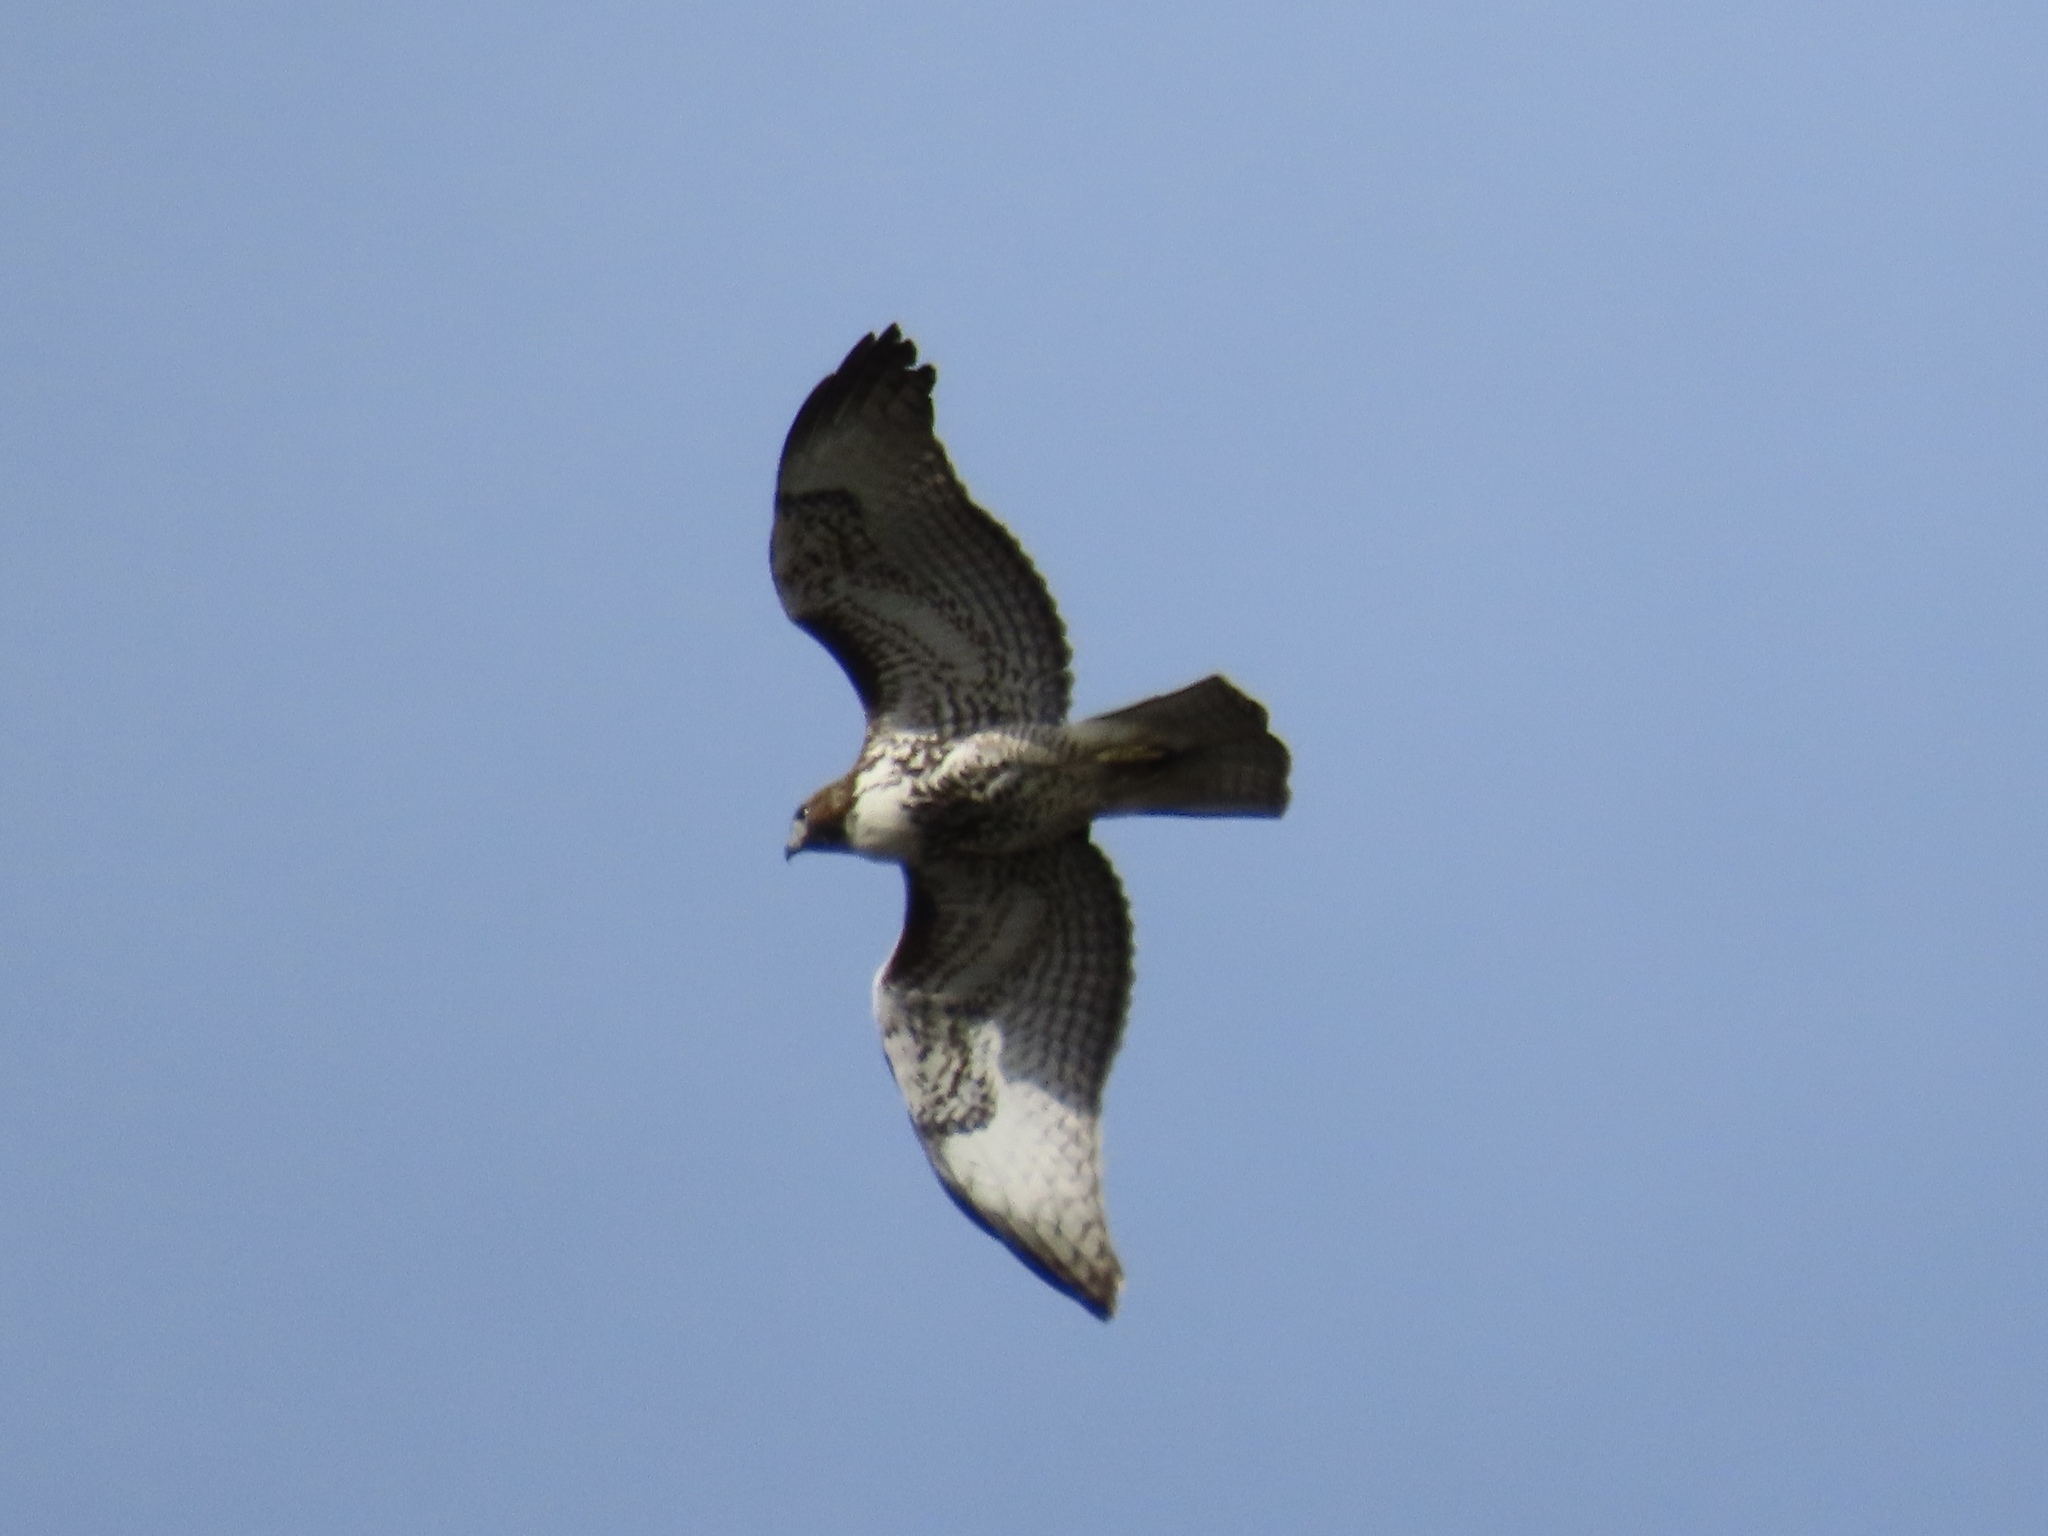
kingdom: Animalia
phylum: Chordata
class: Aves
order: Accipitriformes
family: Accipitridae
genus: Buteo
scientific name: Buteo jamaicensis
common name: Red-tailed hawk
